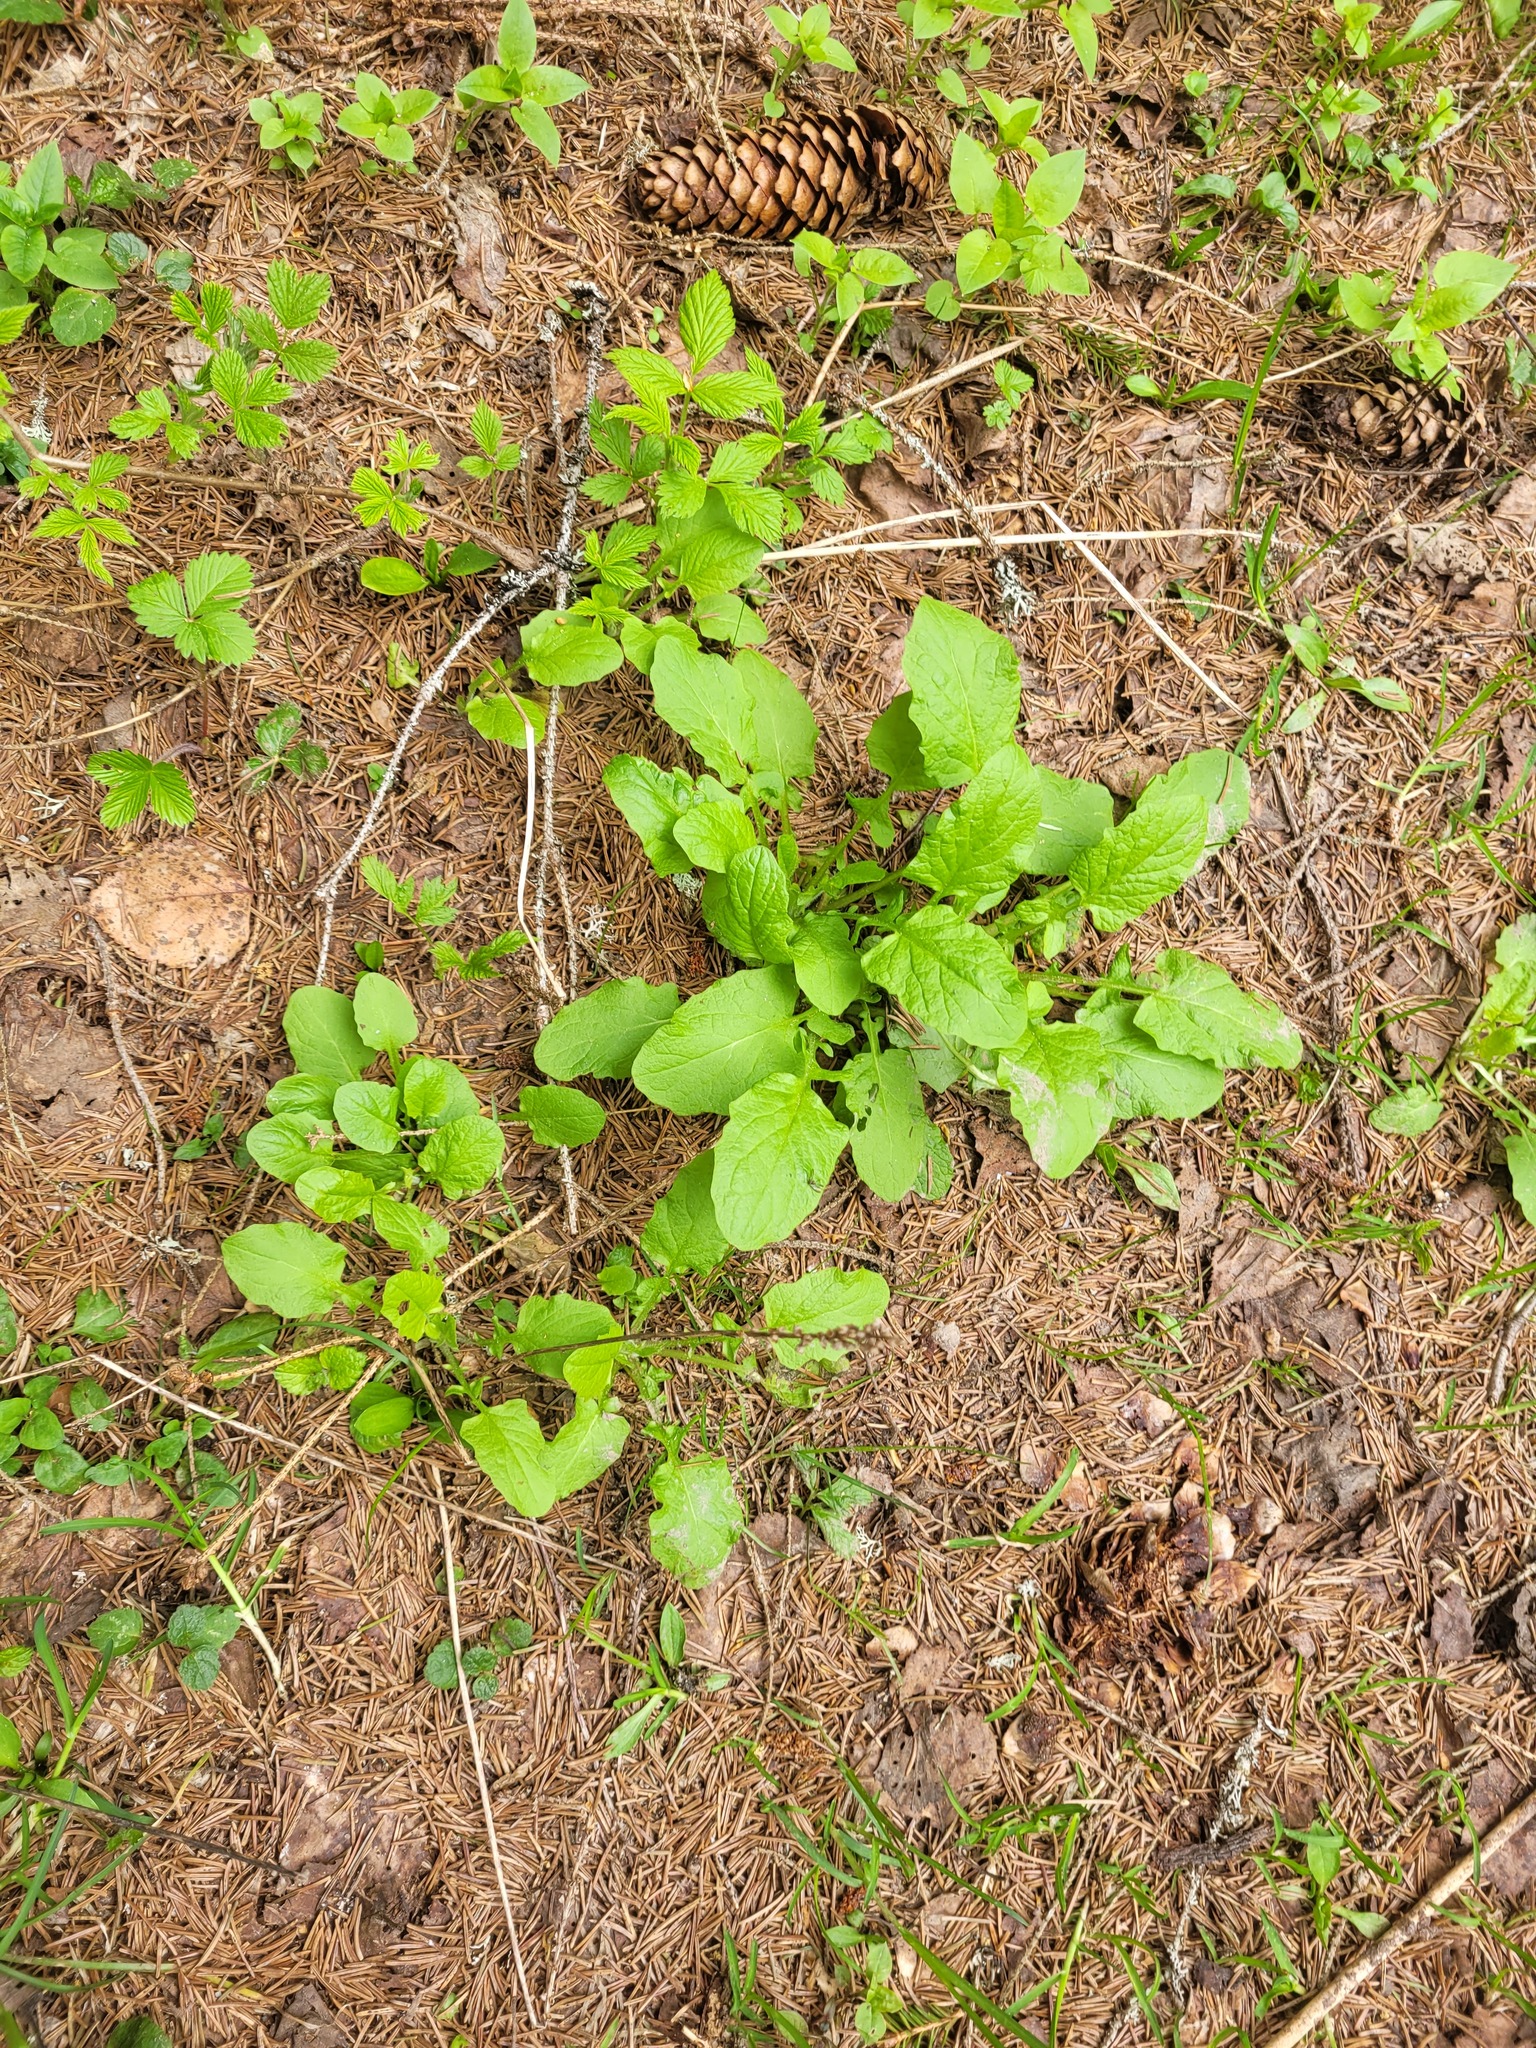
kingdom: Plantae
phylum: Tracheophyta
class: Magnoliopsida
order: Asterales
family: Asteraceae
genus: Lapsana
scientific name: Lapsana communis
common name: Nipplewort
